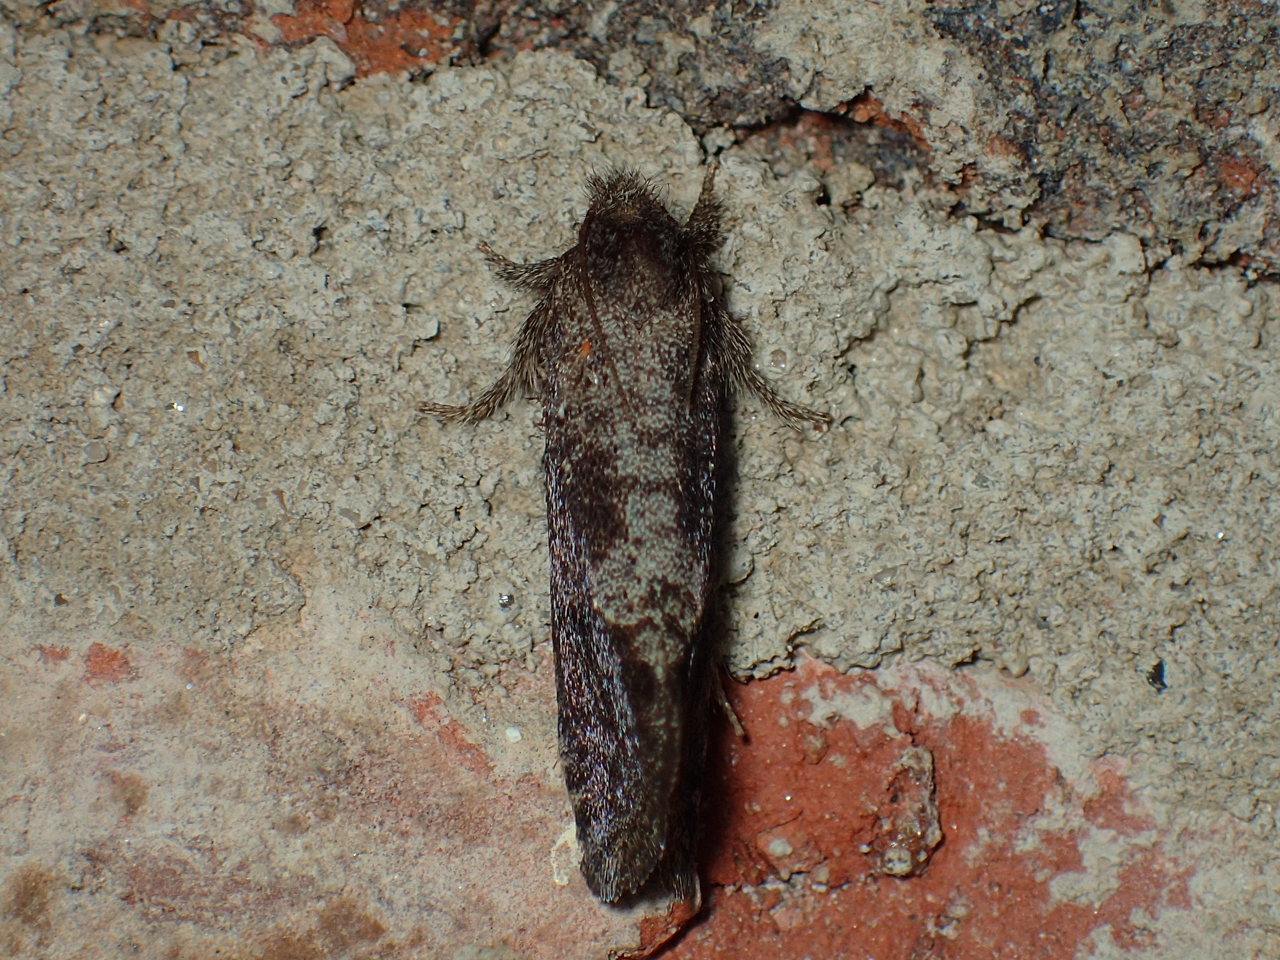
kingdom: Animalia
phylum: Arthropoda
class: Insecta
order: Lepidoptera
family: Tineidae
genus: Acrolophus
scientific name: Acrolophus texanella
